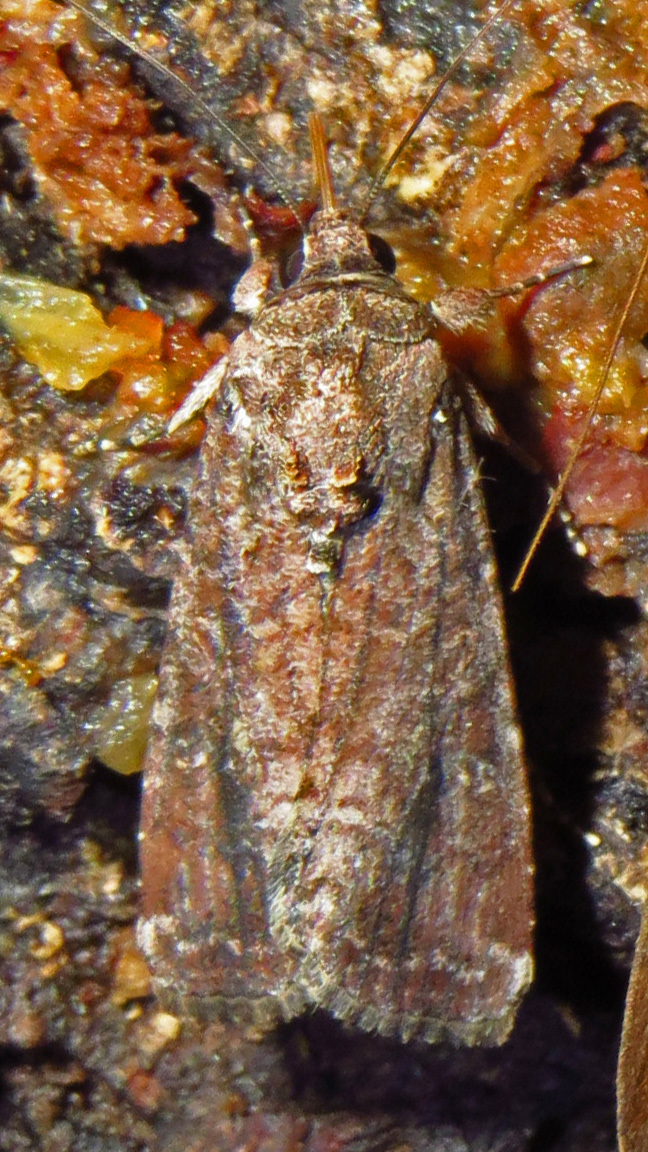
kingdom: Animalia
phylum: Arthropoda
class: Insecta
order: Lepidoptera
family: Noctuidae
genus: Spodoptera
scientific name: Spodoptera frugiperda
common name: Fall armyworm
